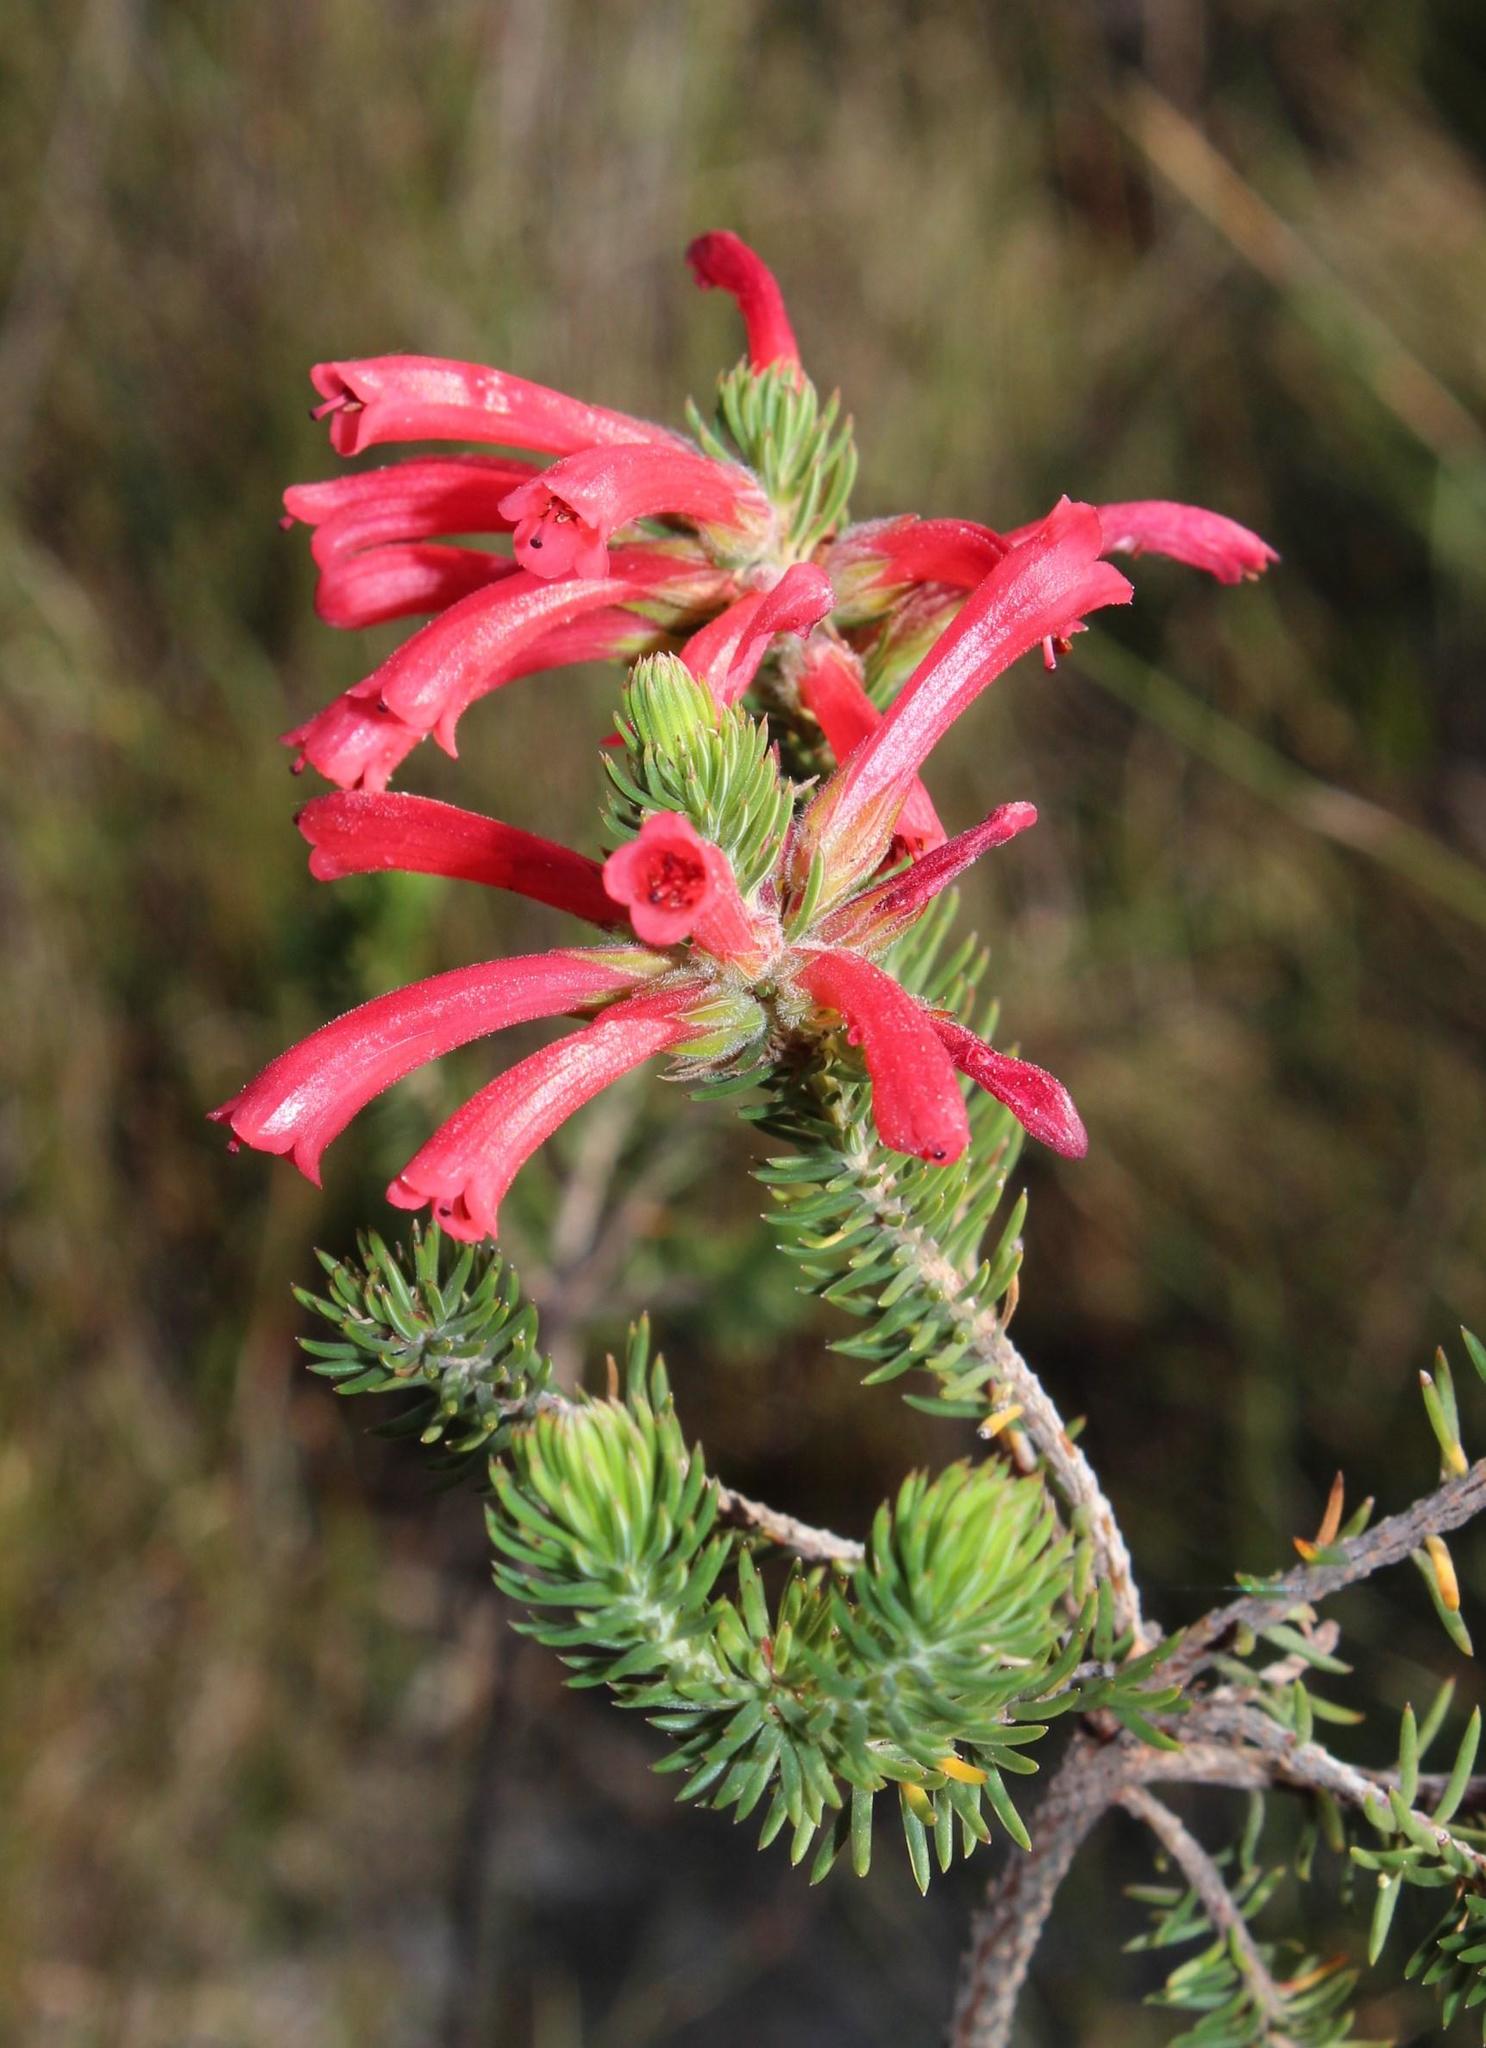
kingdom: Plantae
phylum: Tracheophyta
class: Magnoliopsida
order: Ericales
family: Ericaceae
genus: Erica
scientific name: Erica abietina
